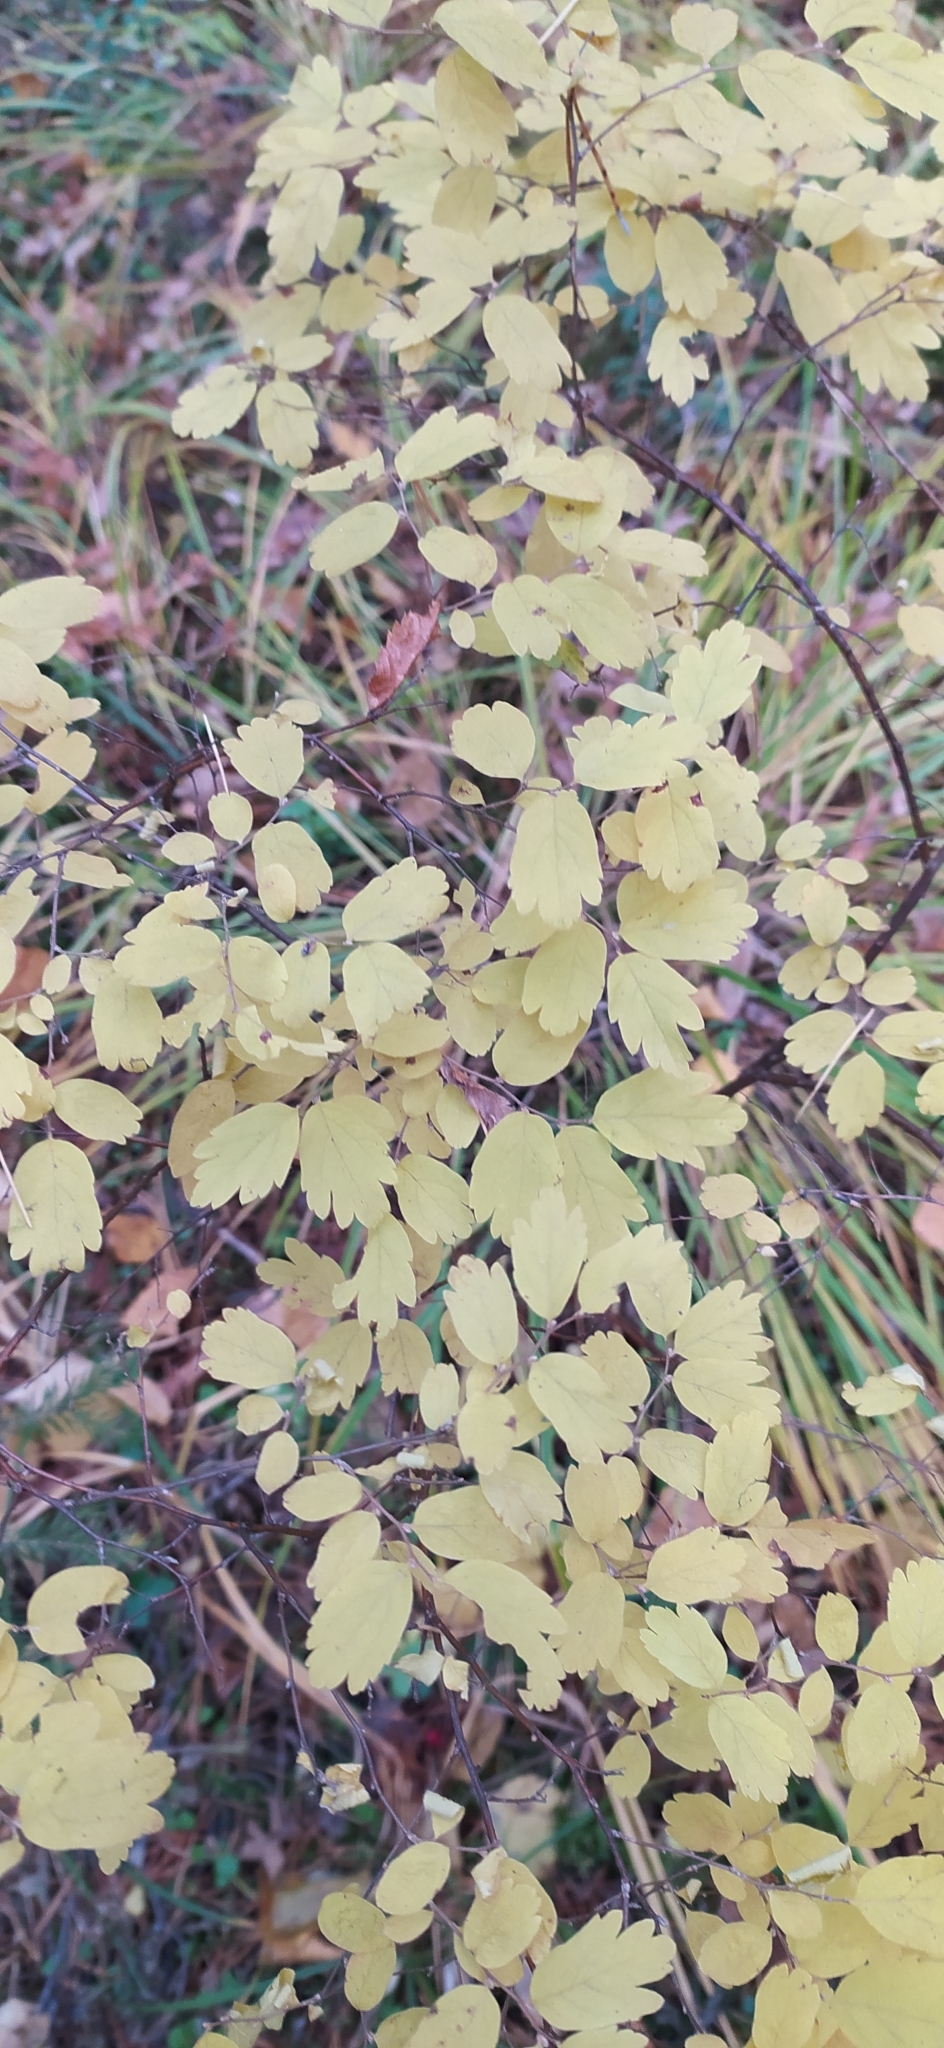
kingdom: Plantae
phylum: Tracheophyta
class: Magnoliopsida
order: Rosales
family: Rosaceae
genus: Spiraea
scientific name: Spiraea media
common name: Russian spiraea
